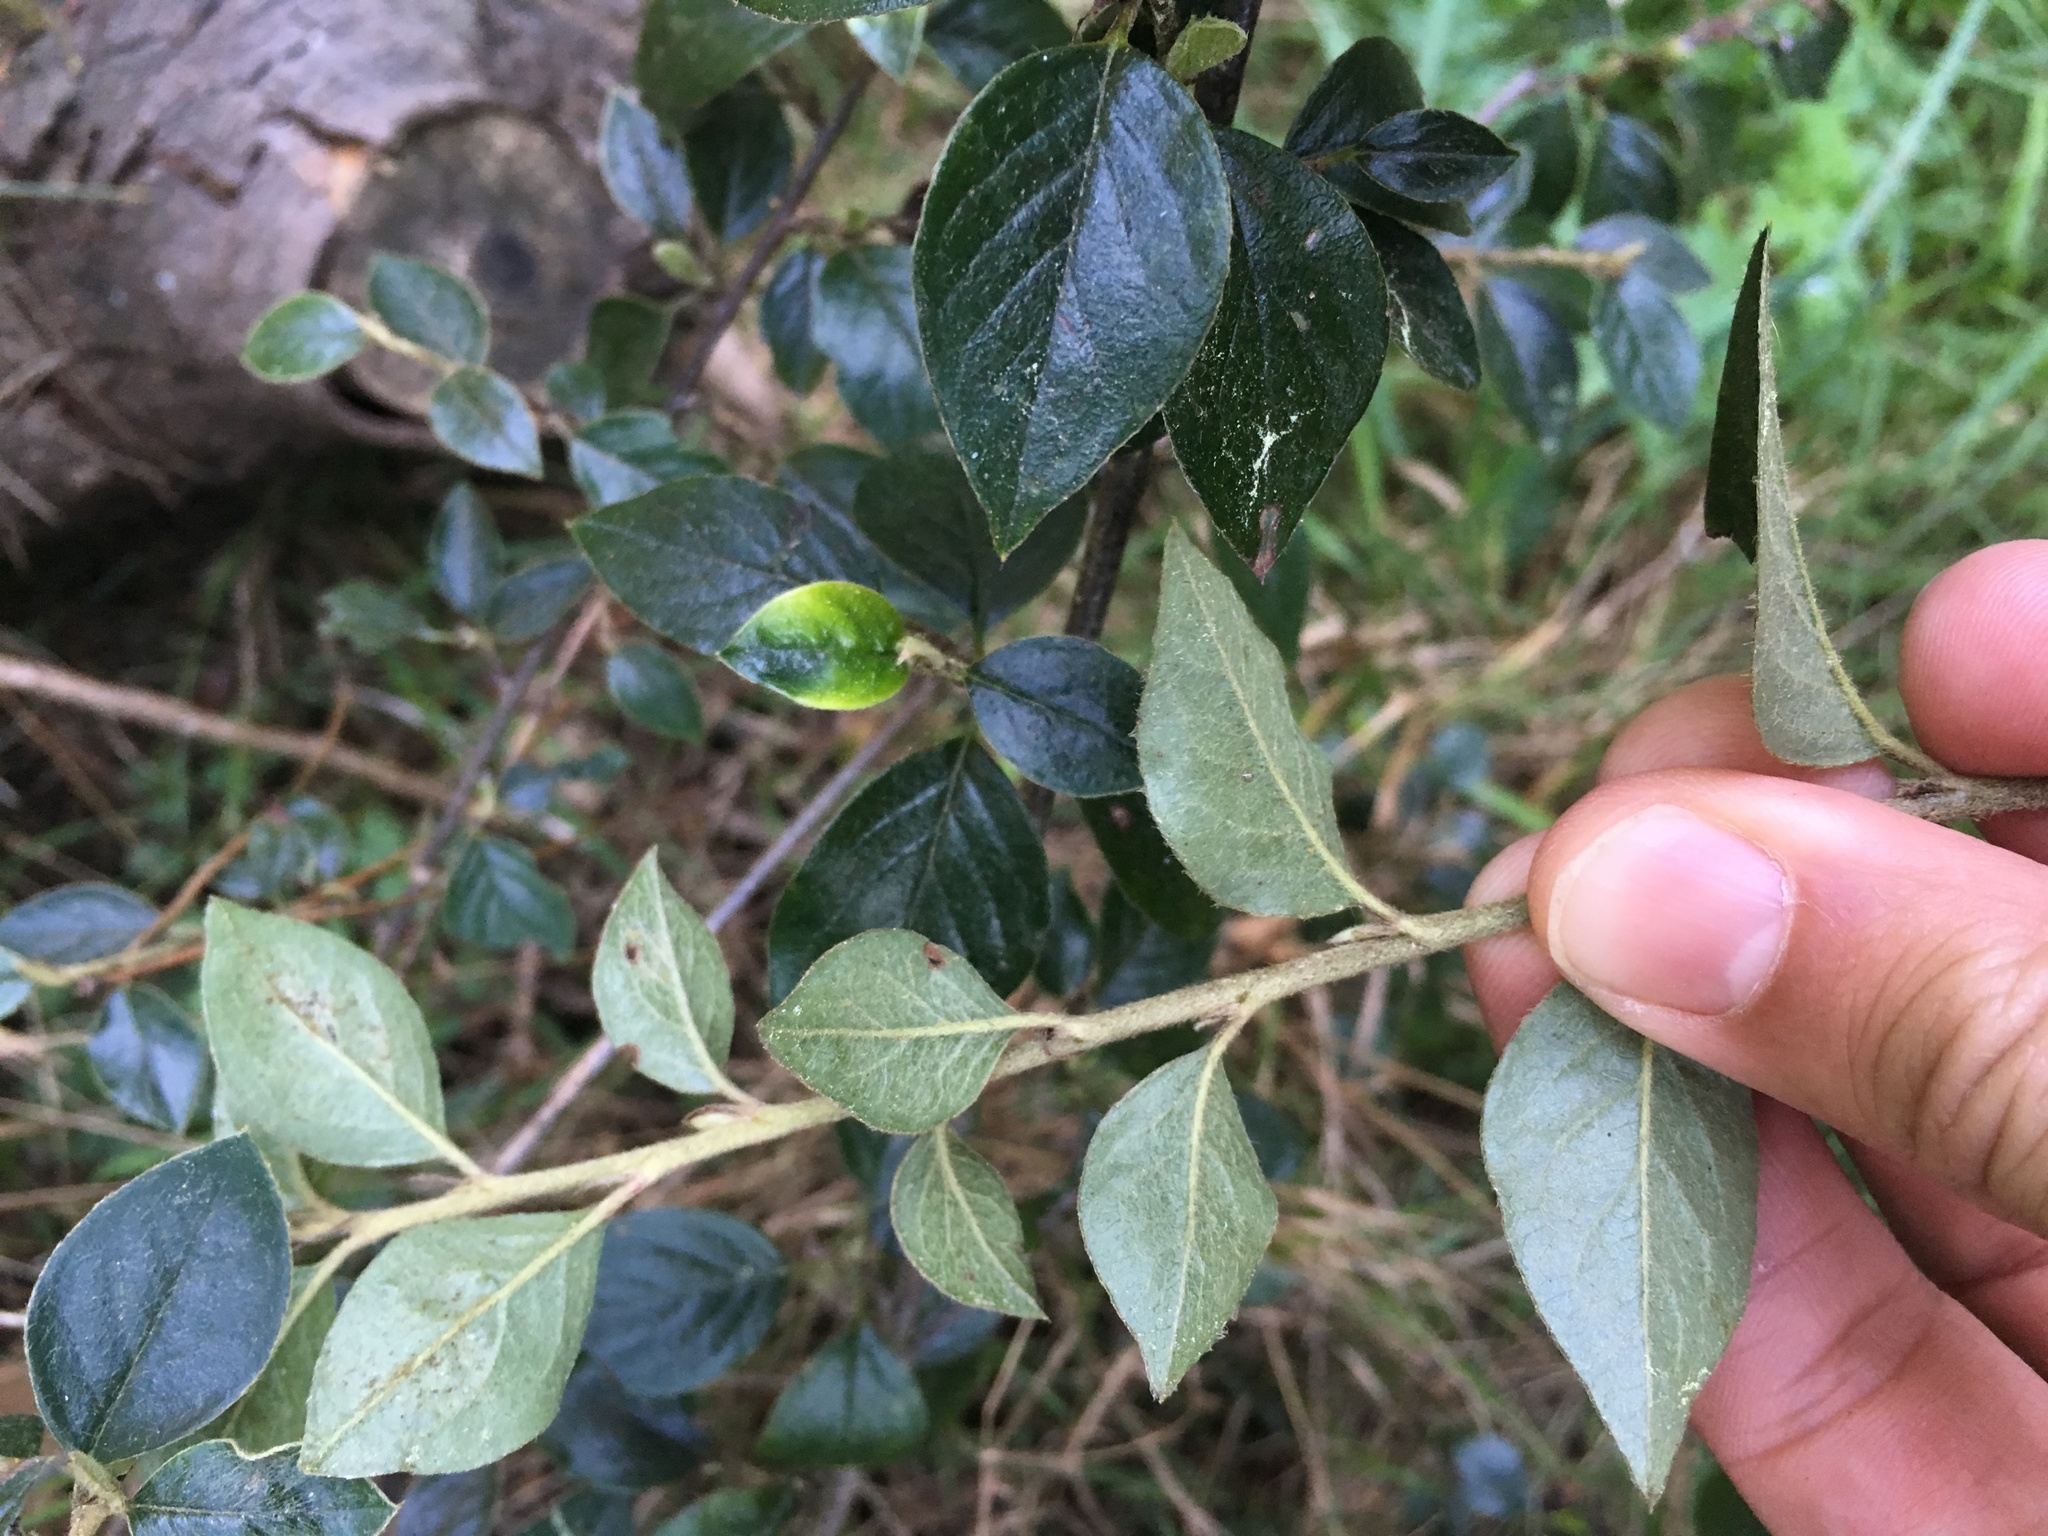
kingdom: Plantae
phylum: Tracheophyta
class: Magnoliopsida
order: Rosales
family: Rosaceae
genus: Cotoneaster
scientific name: Cotoneaster simonsii
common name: Himalayan cotoneaster
